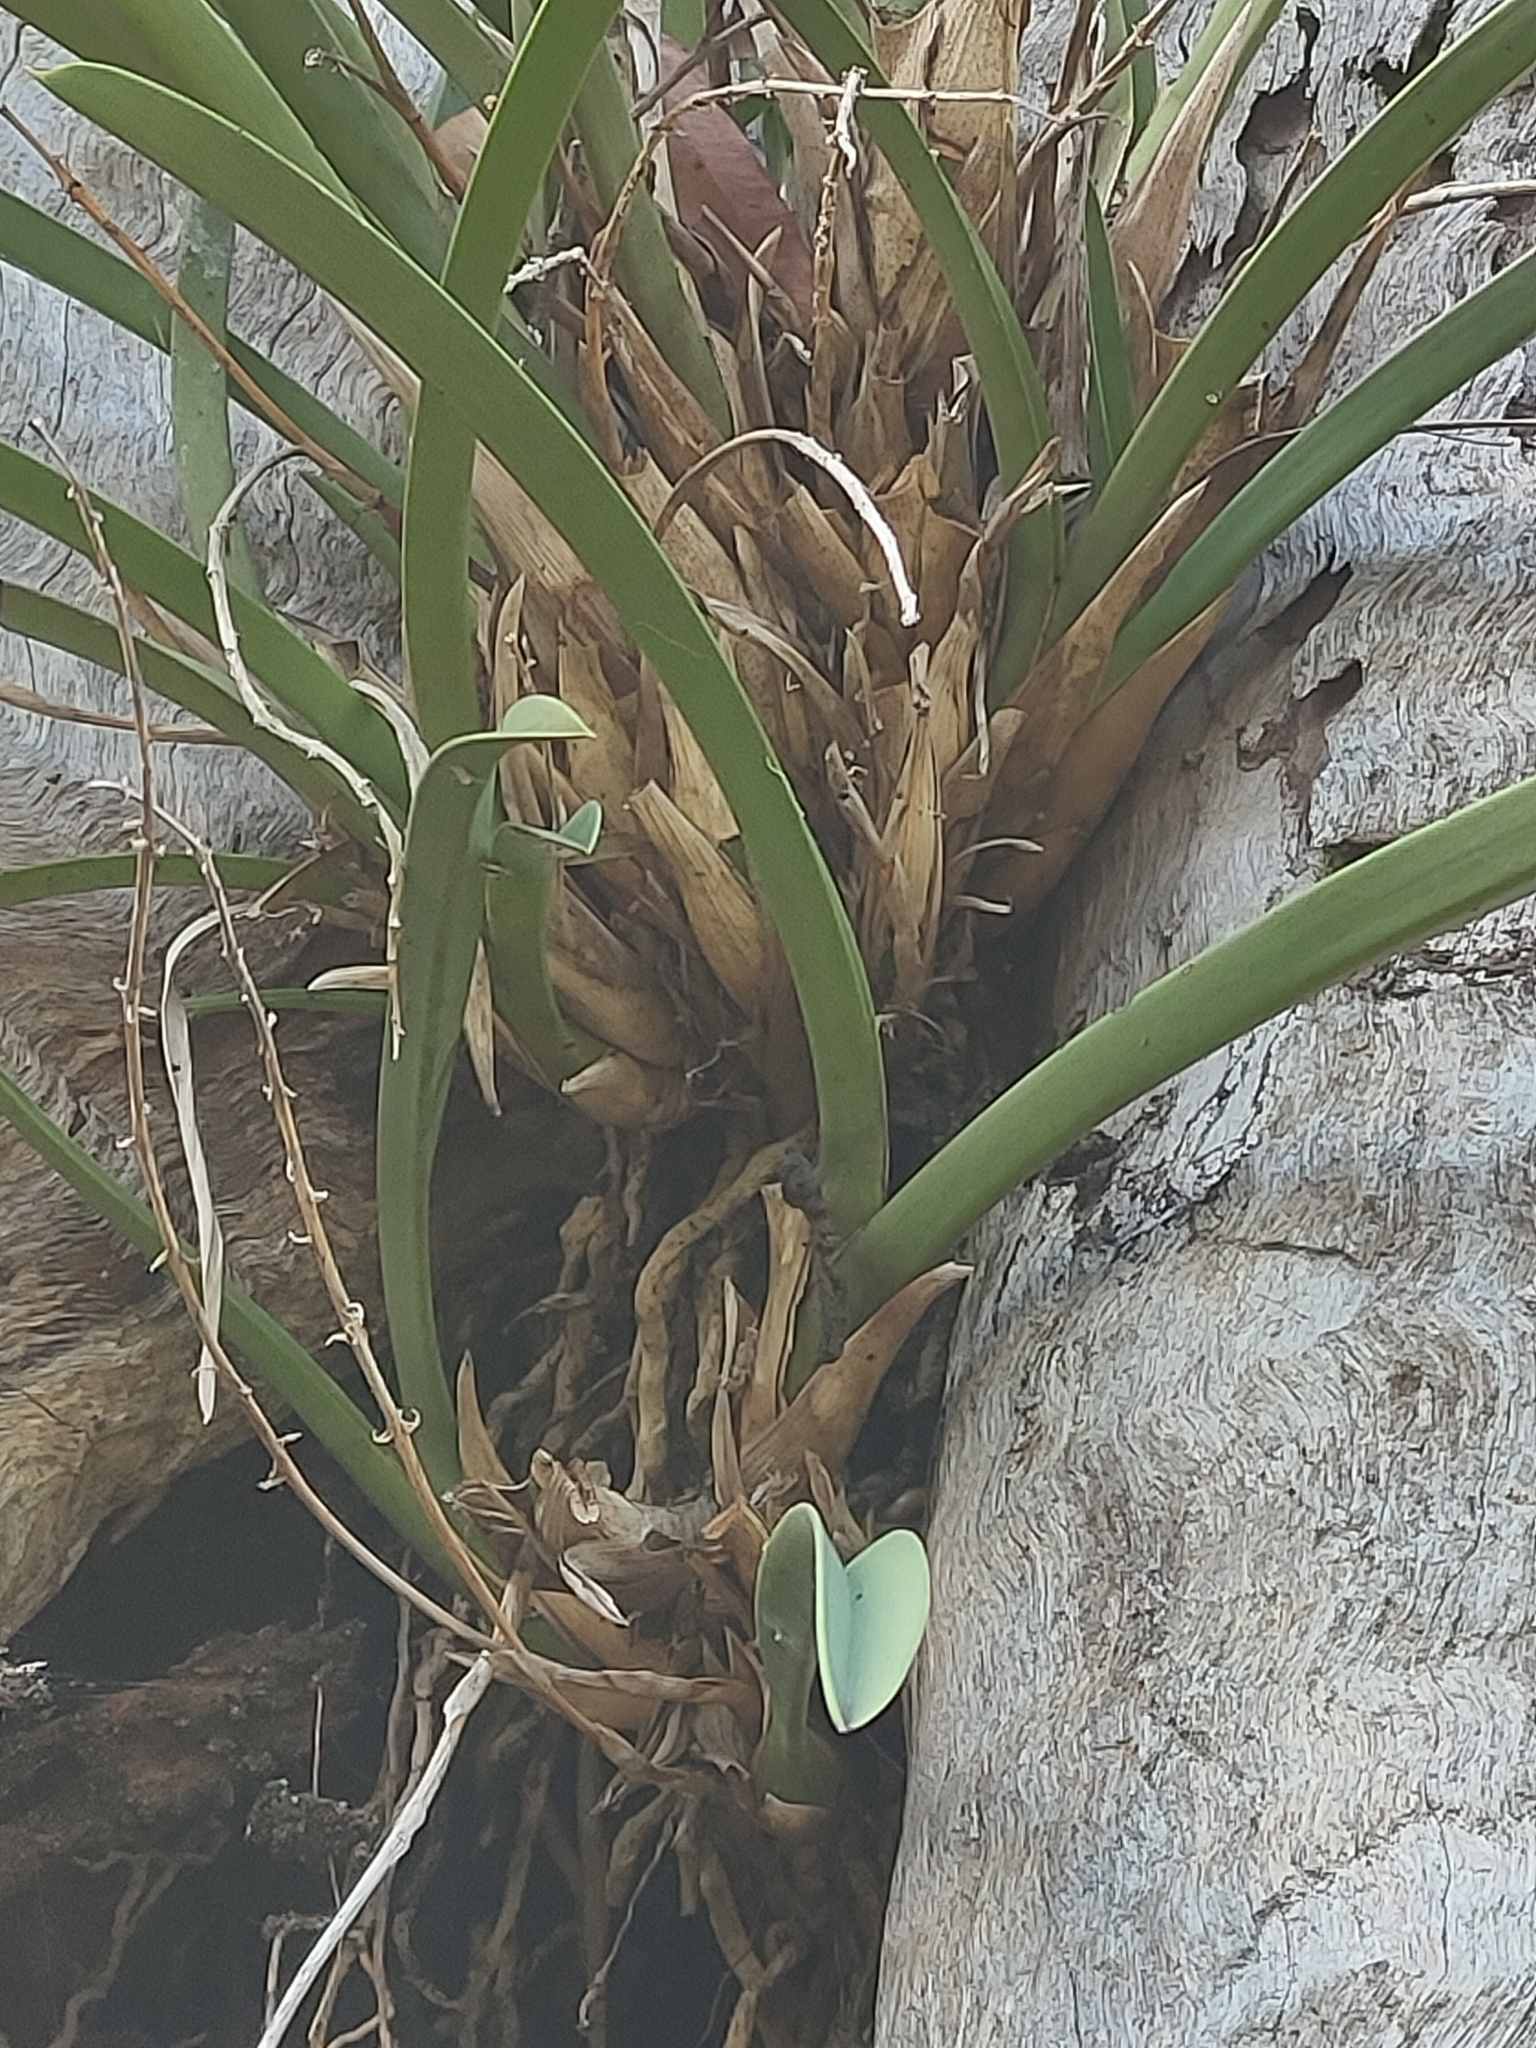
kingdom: Plantae
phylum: Tracheophyta
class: Liliopsida
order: Asparagales
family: Orchidaceae
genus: Cymbidium
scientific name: Cymbidium canaliculatum
